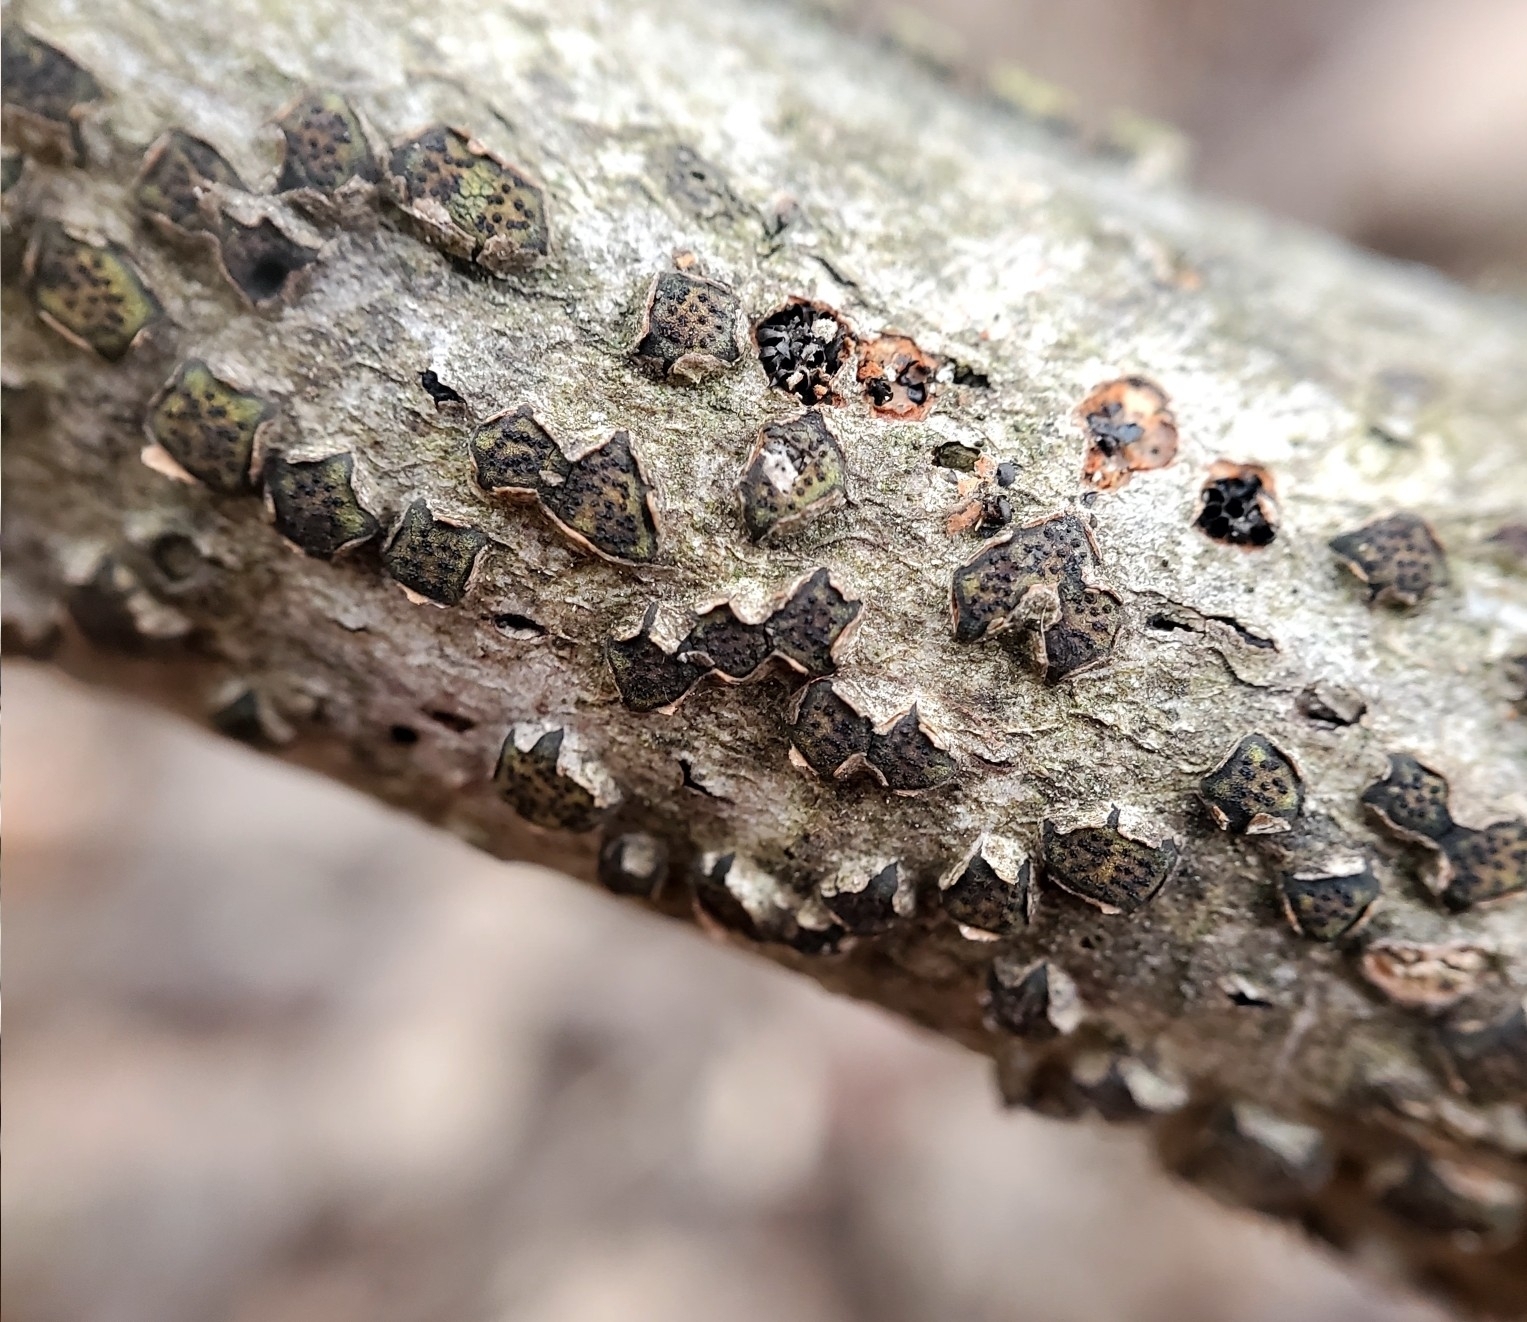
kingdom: Fungi
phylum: Ascomycota
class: Sordariomycetes
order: Xylariales
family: Diatrypaceae
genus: Diatrype
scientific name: Diatrype virescens
